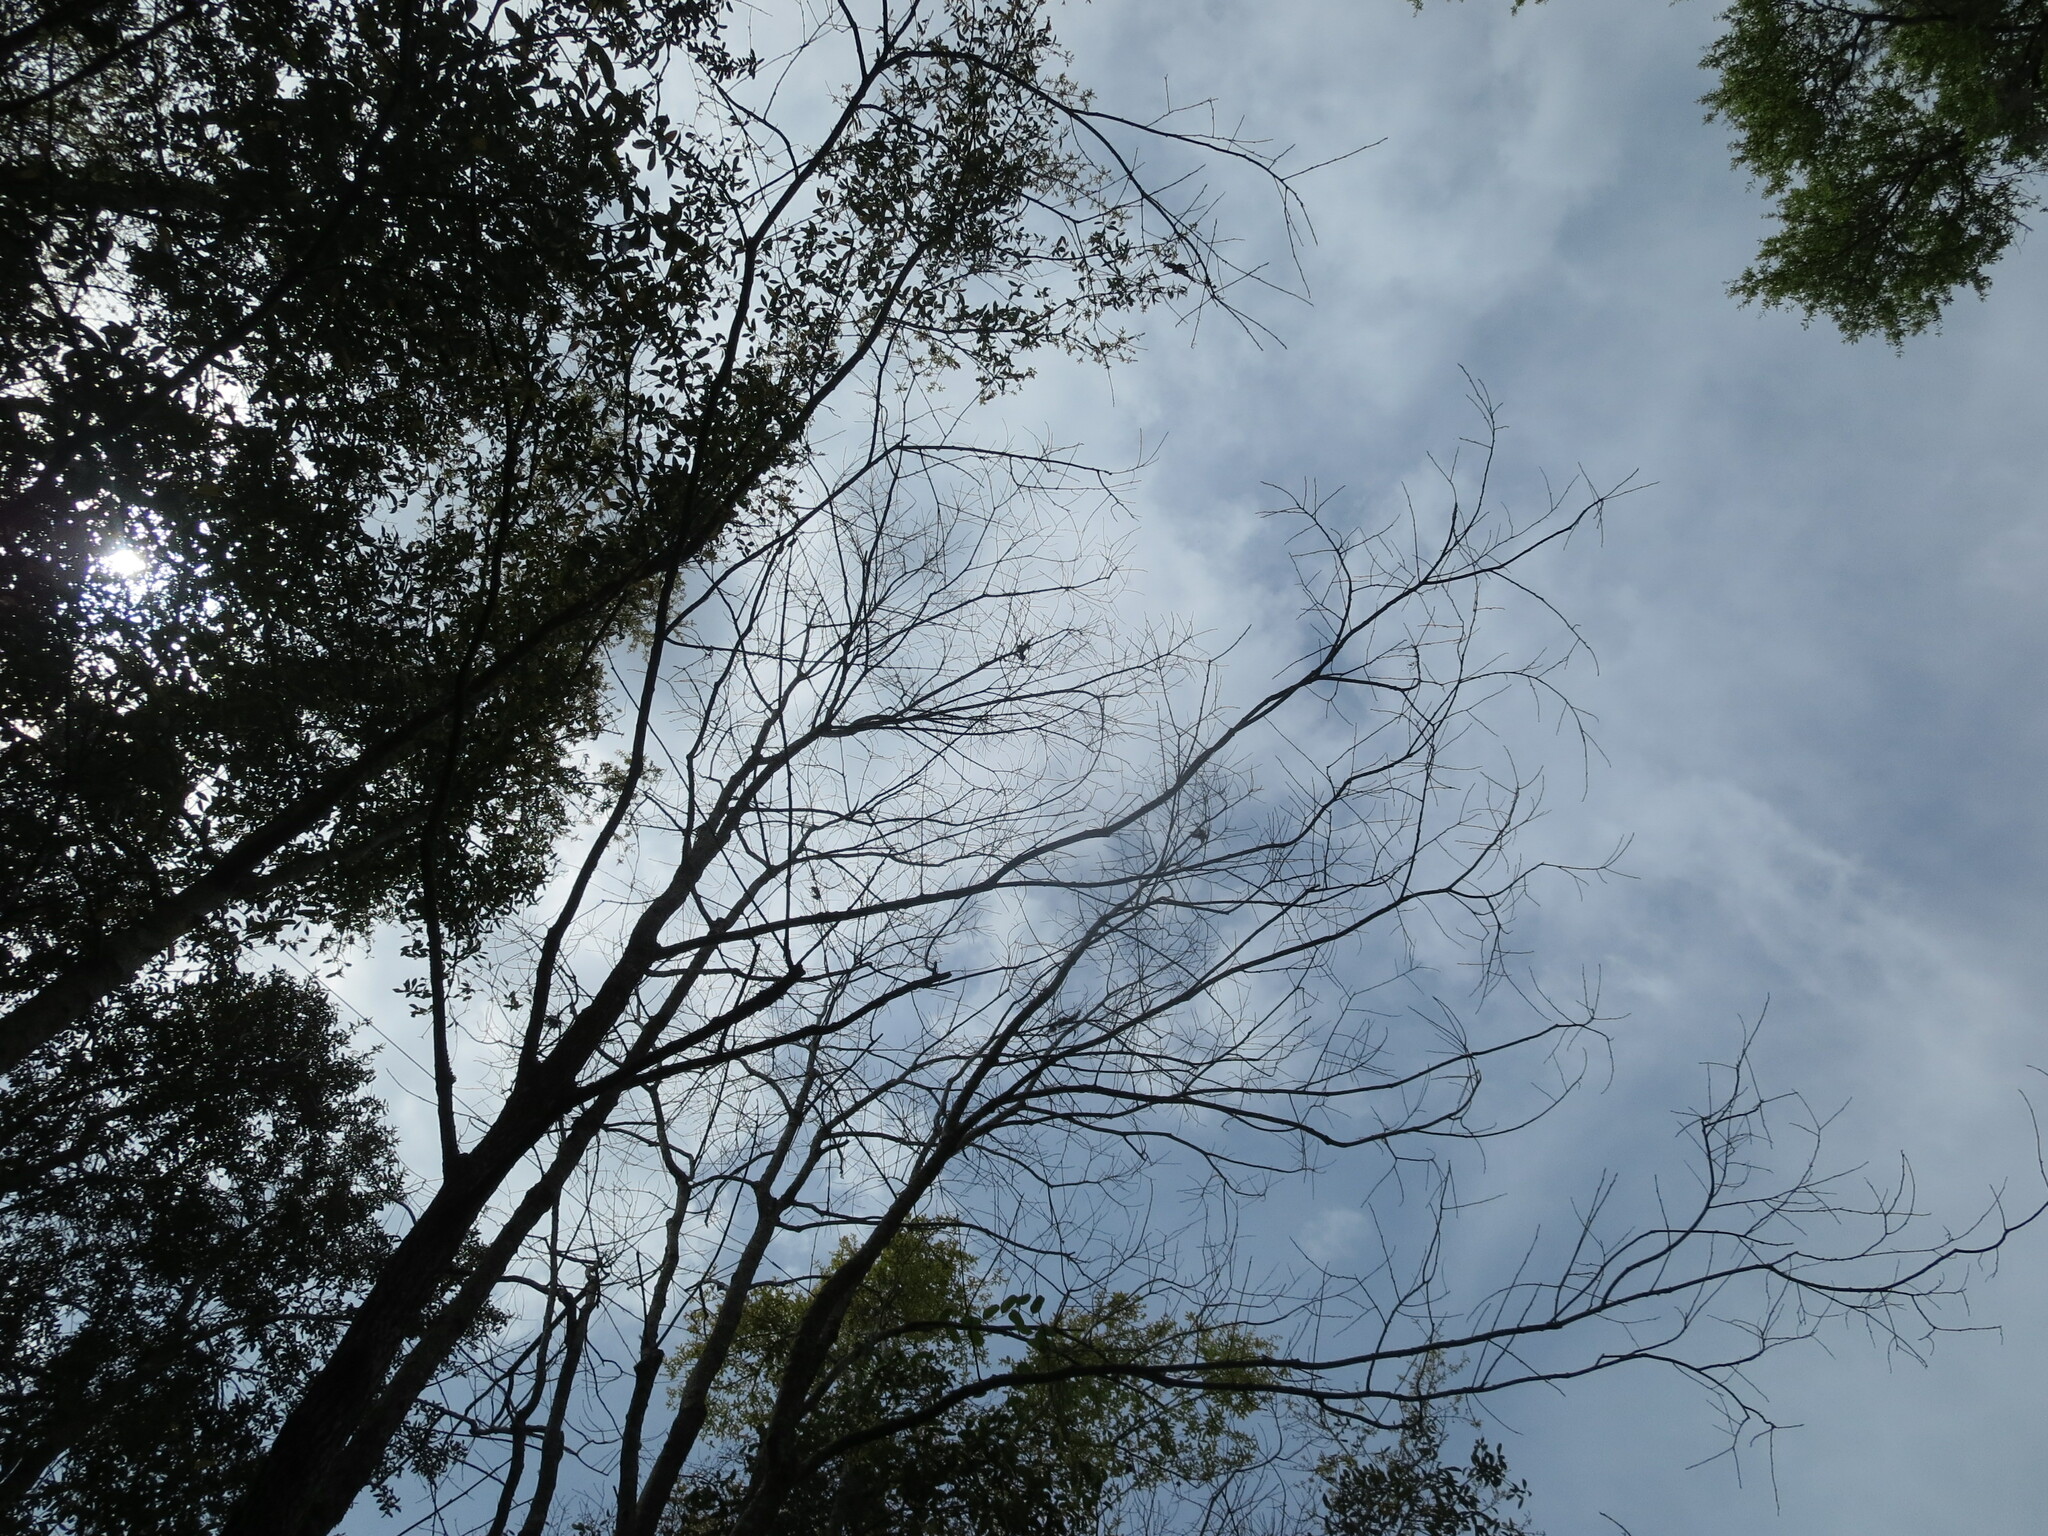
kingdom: Plantae
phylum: Tracheophyta
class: Magnoliopsida
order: Ericales
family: Ebenaceae
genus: Diospyros
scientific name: Diospyros virginiana
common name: Persimmon
